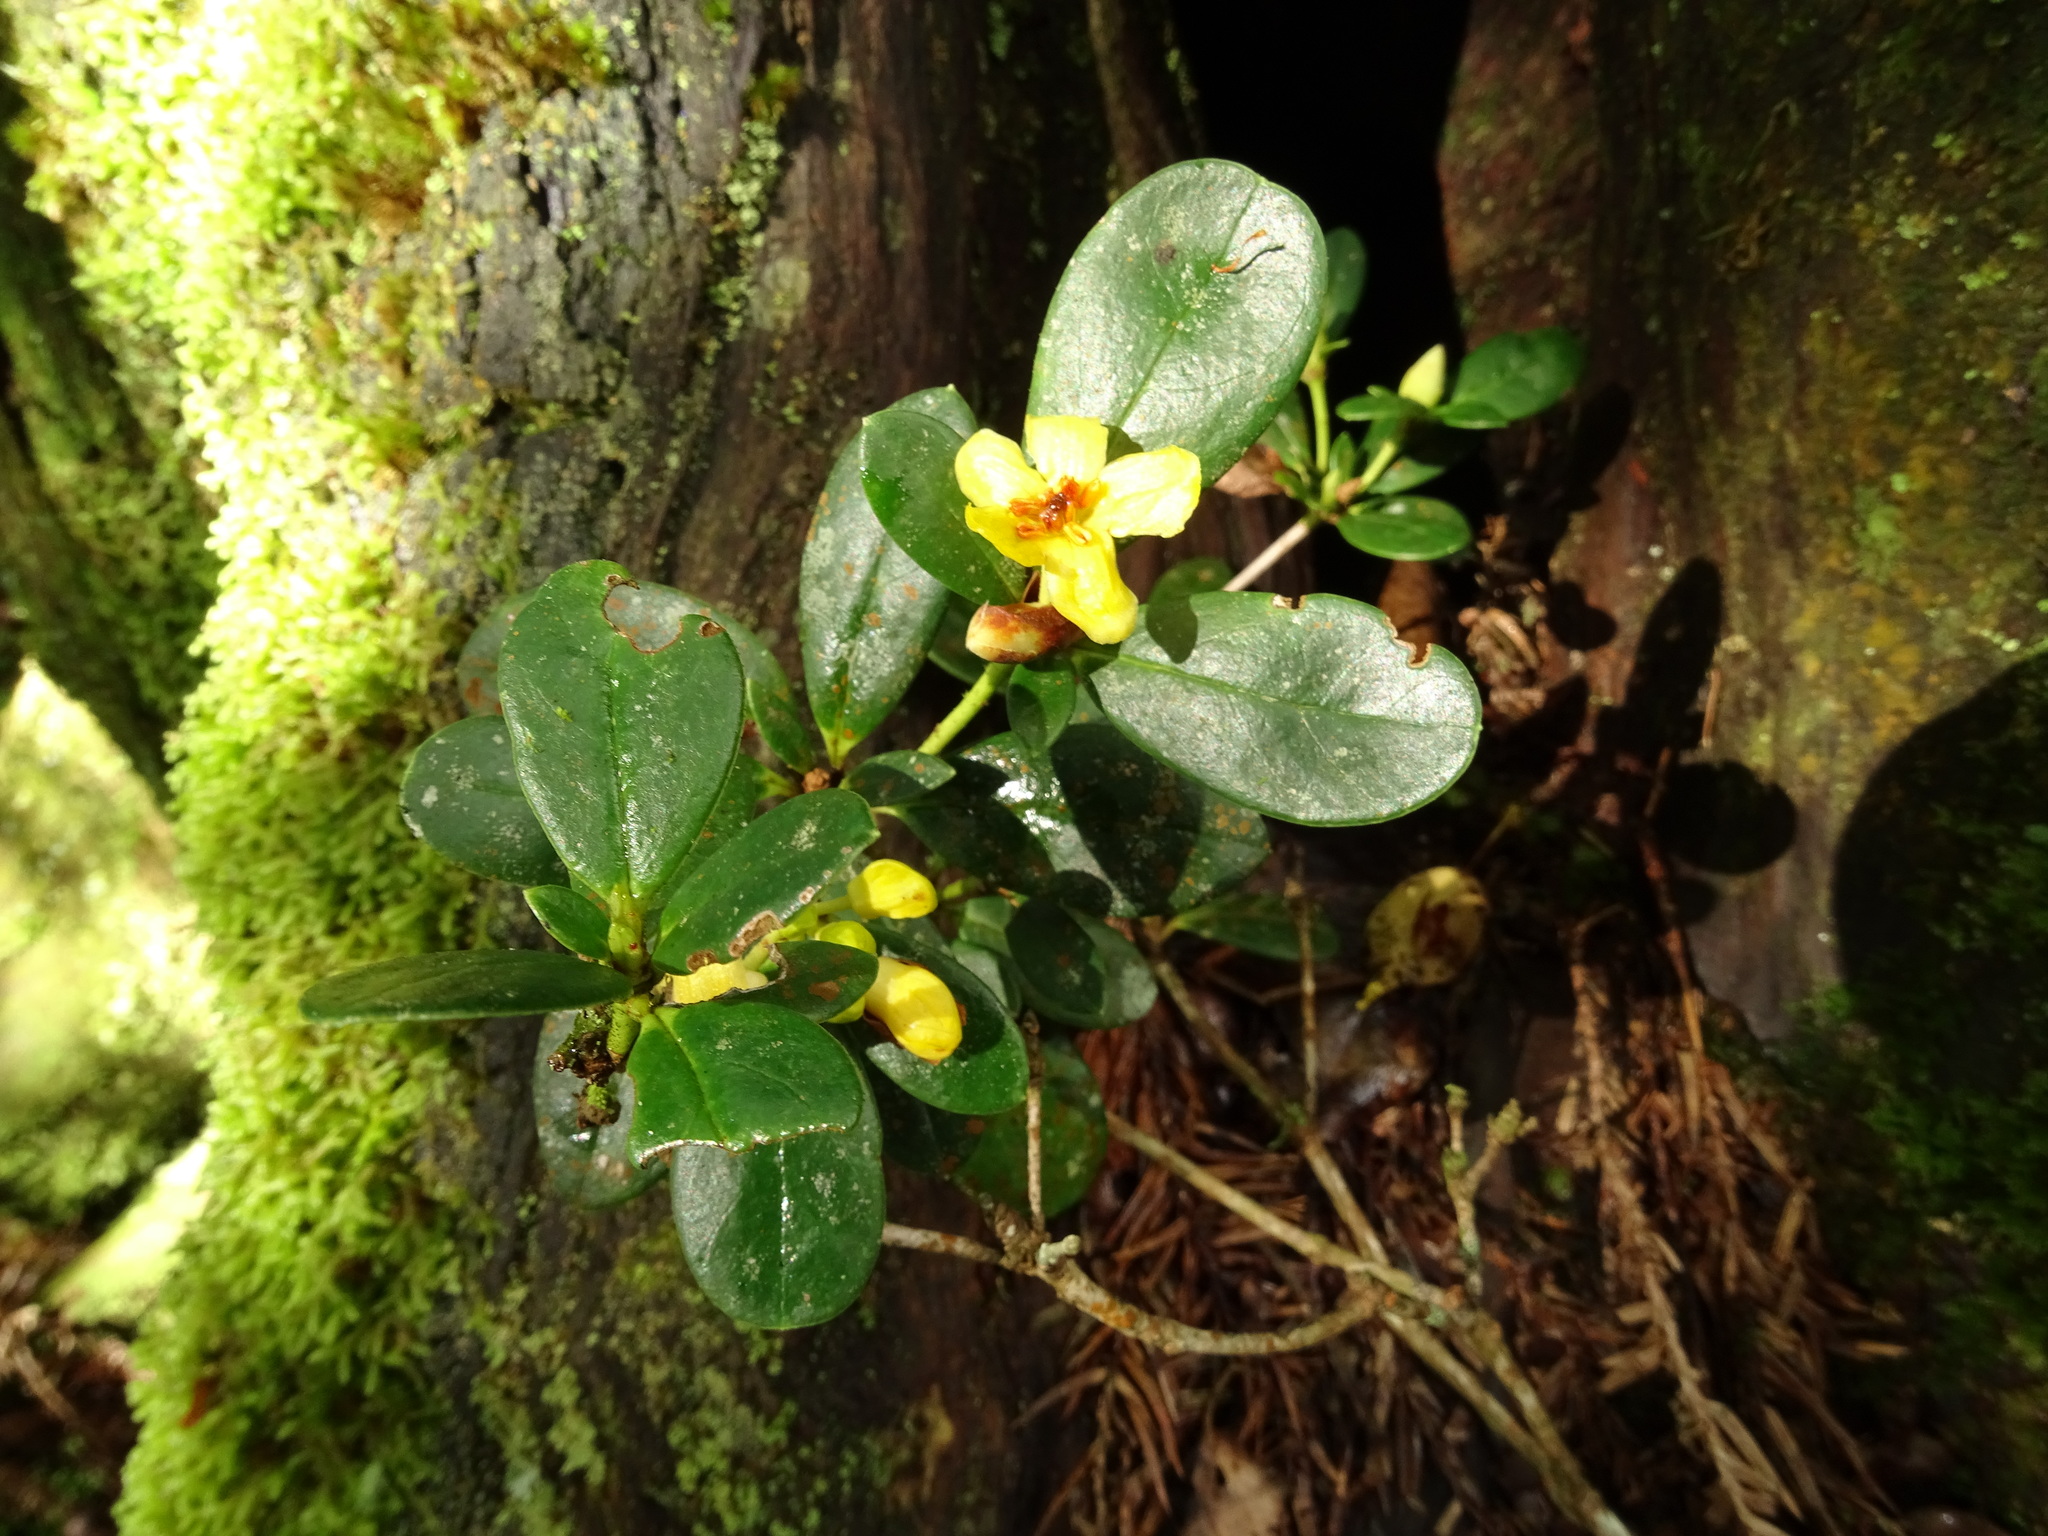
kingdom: Plantae
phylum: Tracheophyta
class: Magnoliopsida
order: Ericales
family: Ericaceae
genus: Rhododendron
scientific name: Rhododendron kawakamii
